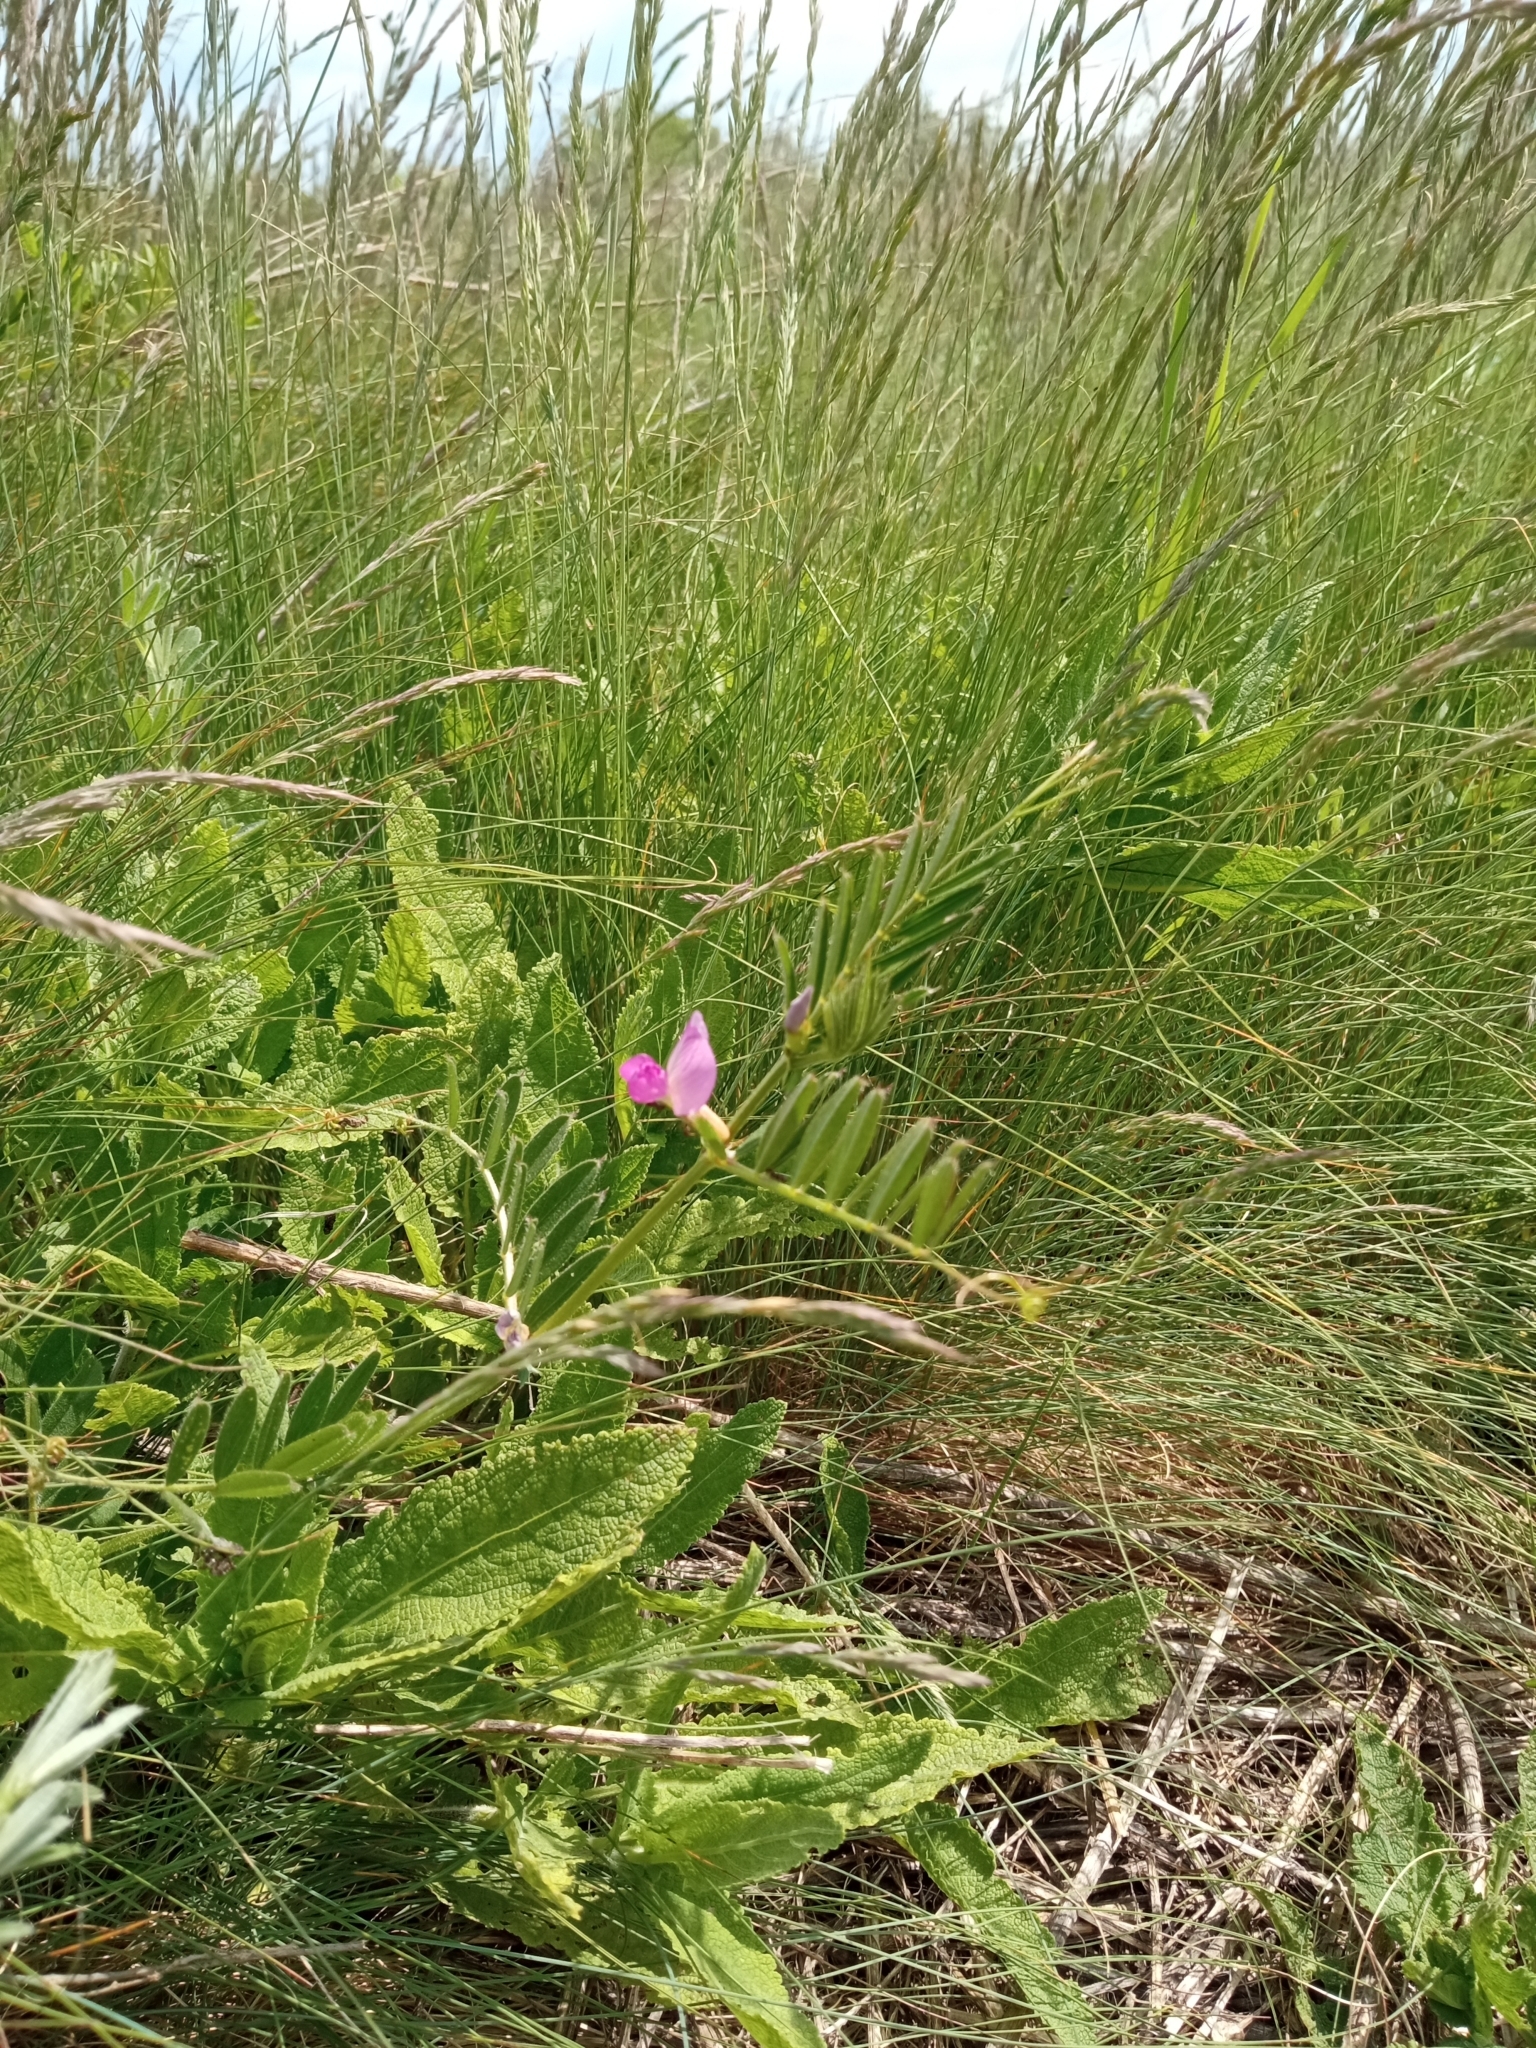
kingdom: Plantae
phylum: Tracheophyta
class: Magnoliopsida
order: Fabales
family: Fabaceae
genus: Vicia
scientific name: Vicia sativa
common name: Garden vetch
